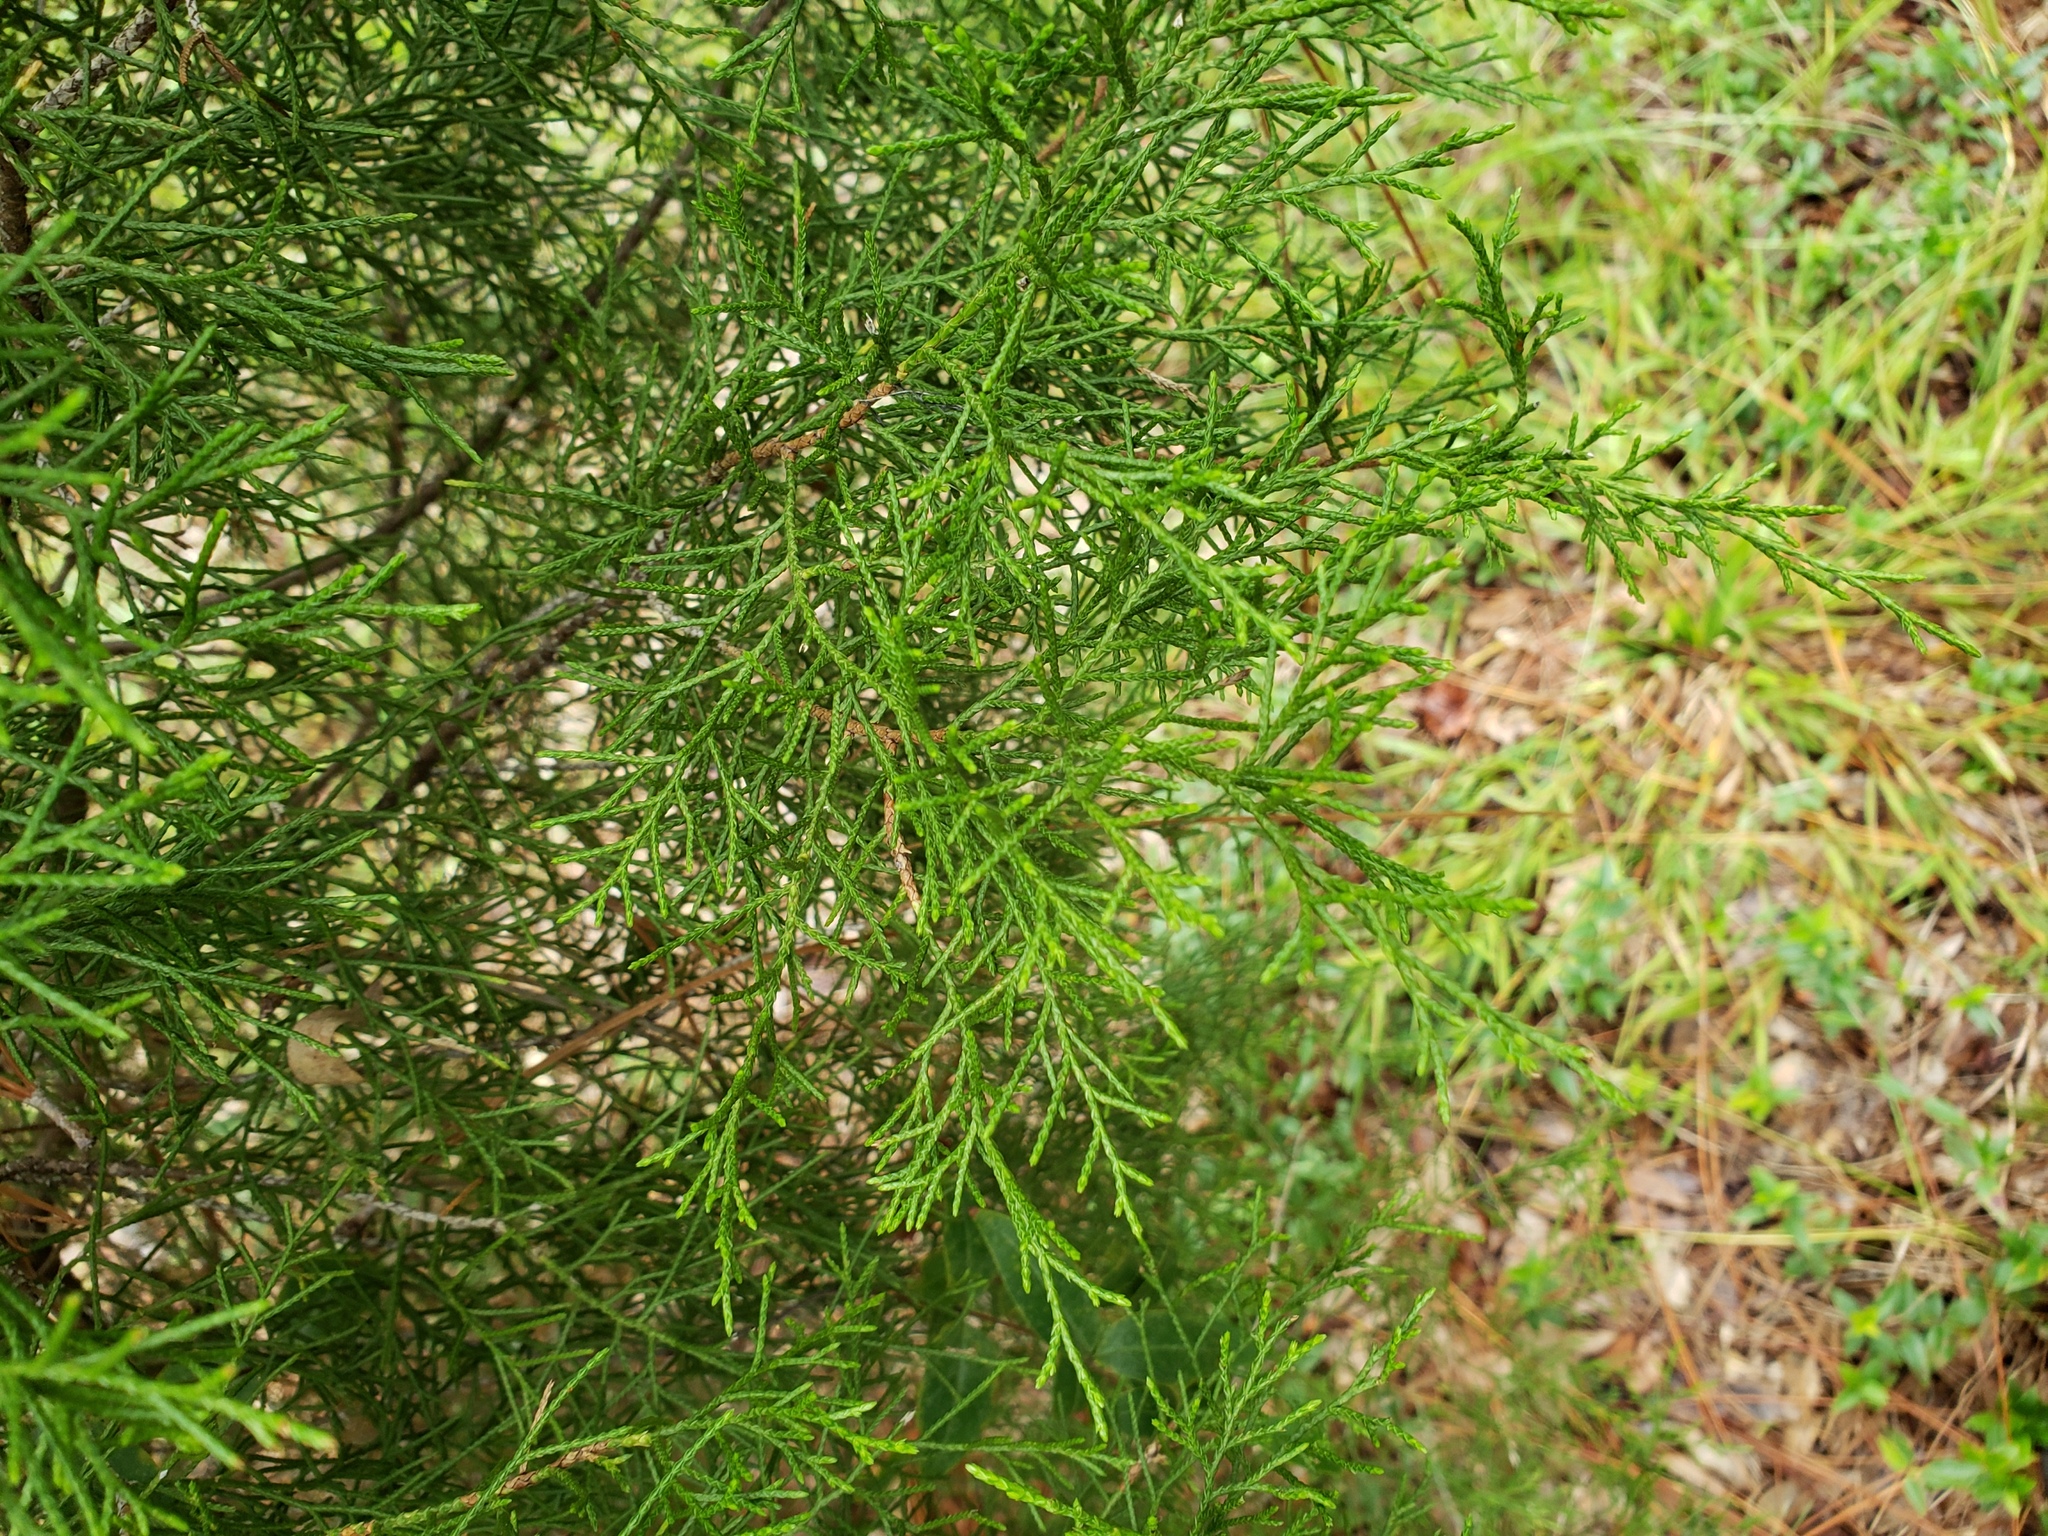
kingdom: Plantae
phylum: Tracheophyta
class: Pinopsida
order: Pinales
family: Cupressaceae
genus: Juniperus
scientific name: Juniperus virginiana
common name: Red juniper
